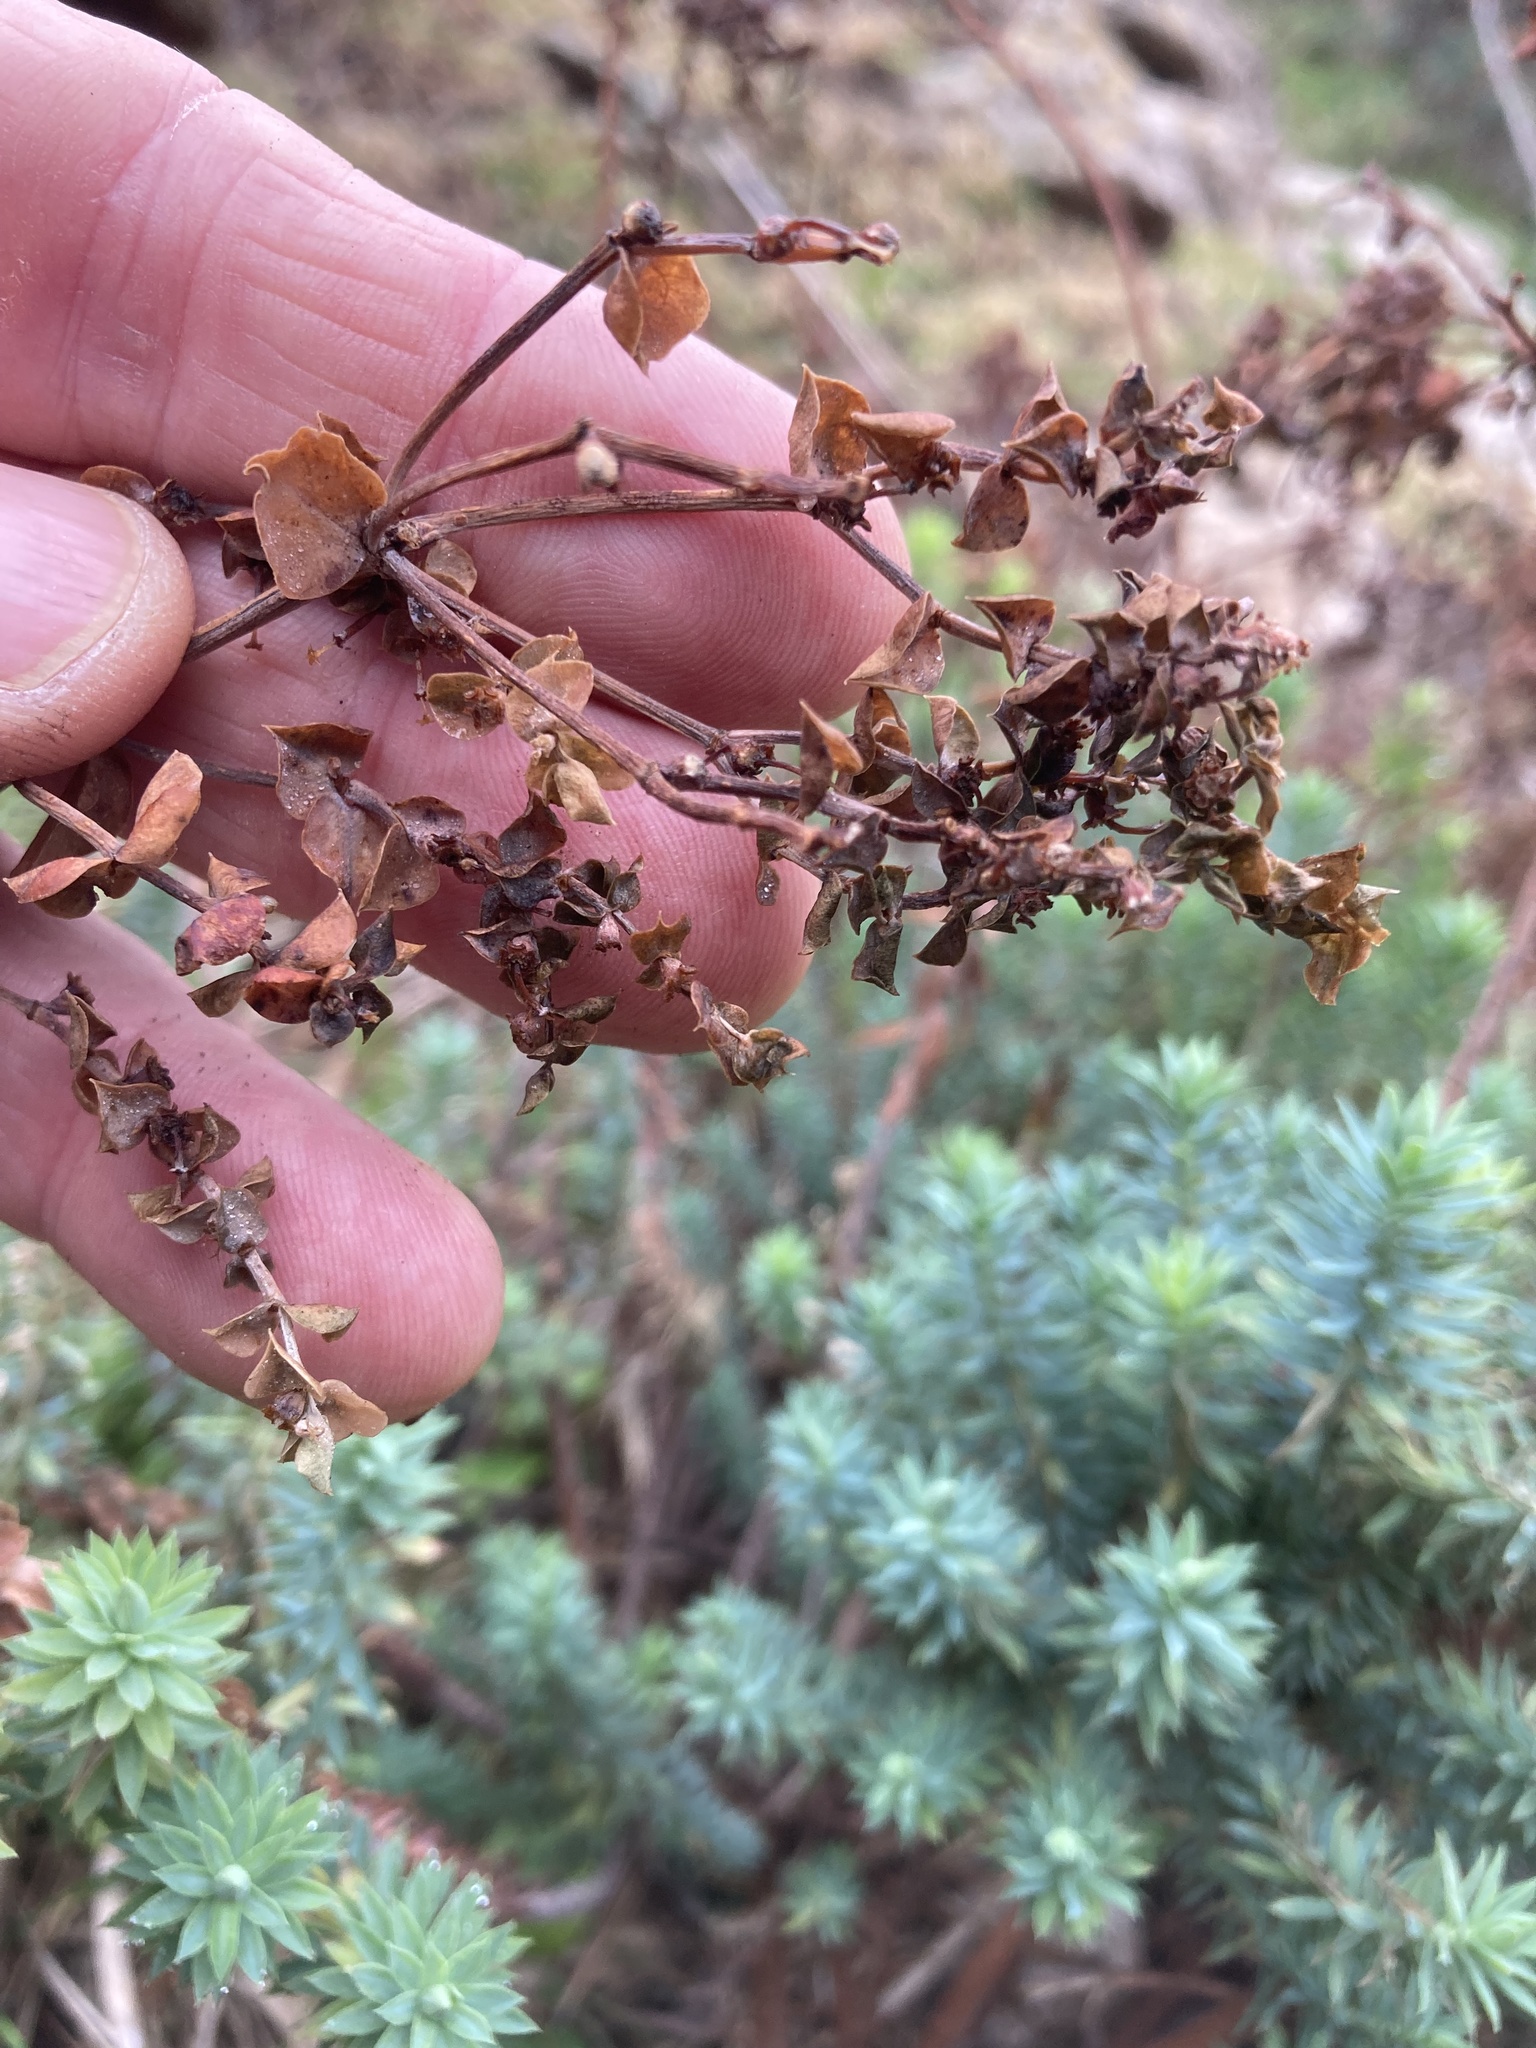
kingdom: Plantae
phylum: Tracheophyta
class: Magnoliopsida
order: Malvales
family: Thymelaeaceae
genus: Daphne
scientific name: Daphne gnidium
